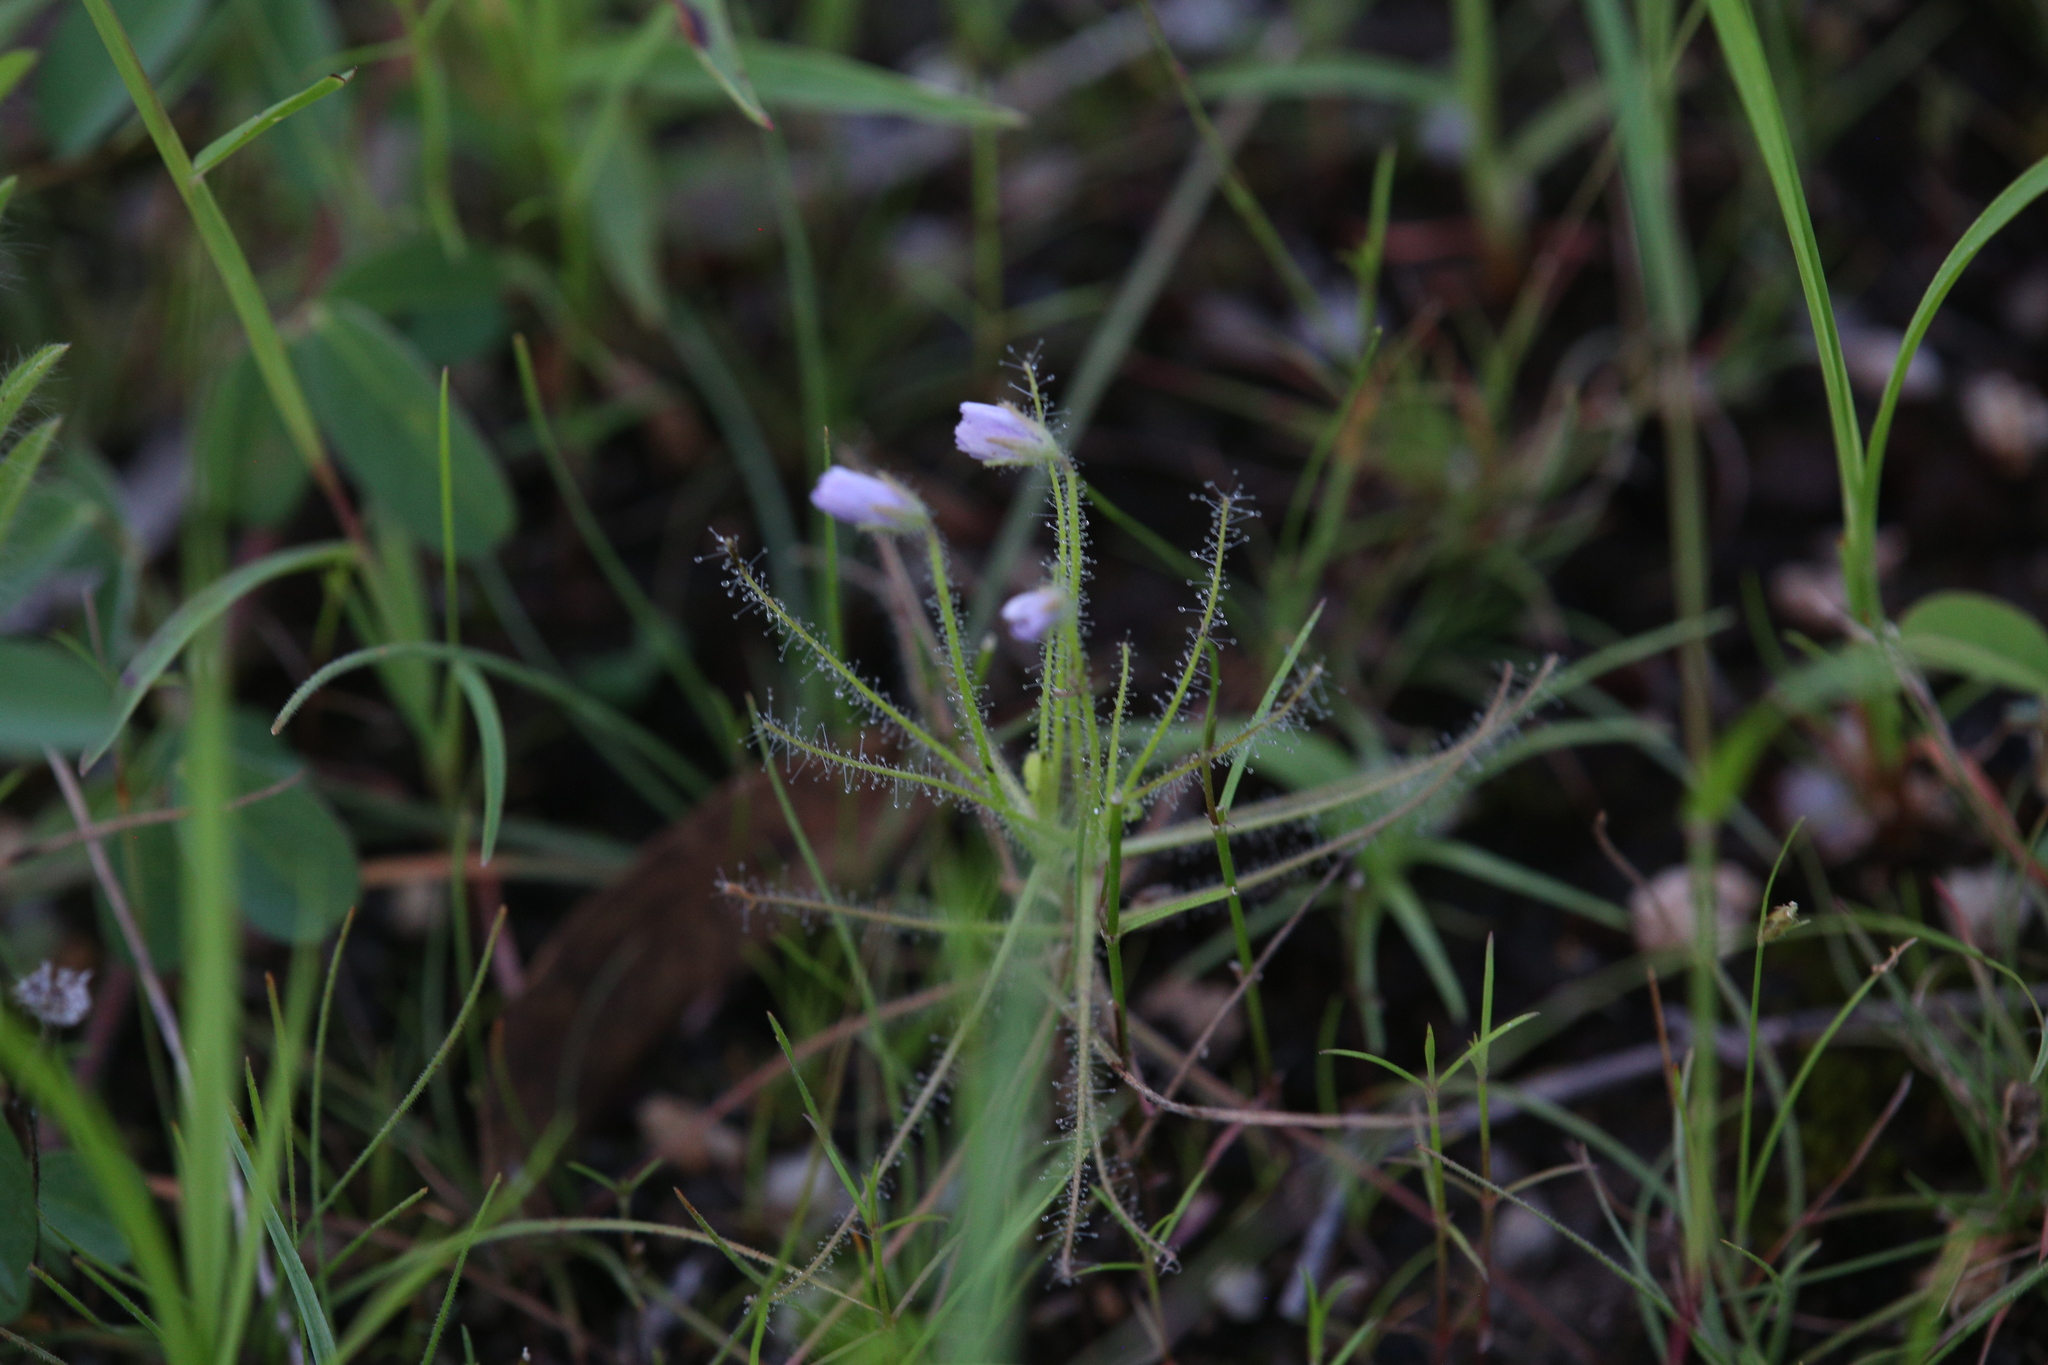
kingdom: Plantae
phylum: Tracheophyta
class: Magnoliopsida
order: Lamiales
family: Byblidaceae
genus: Byblis
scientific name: Byblis liniflora
